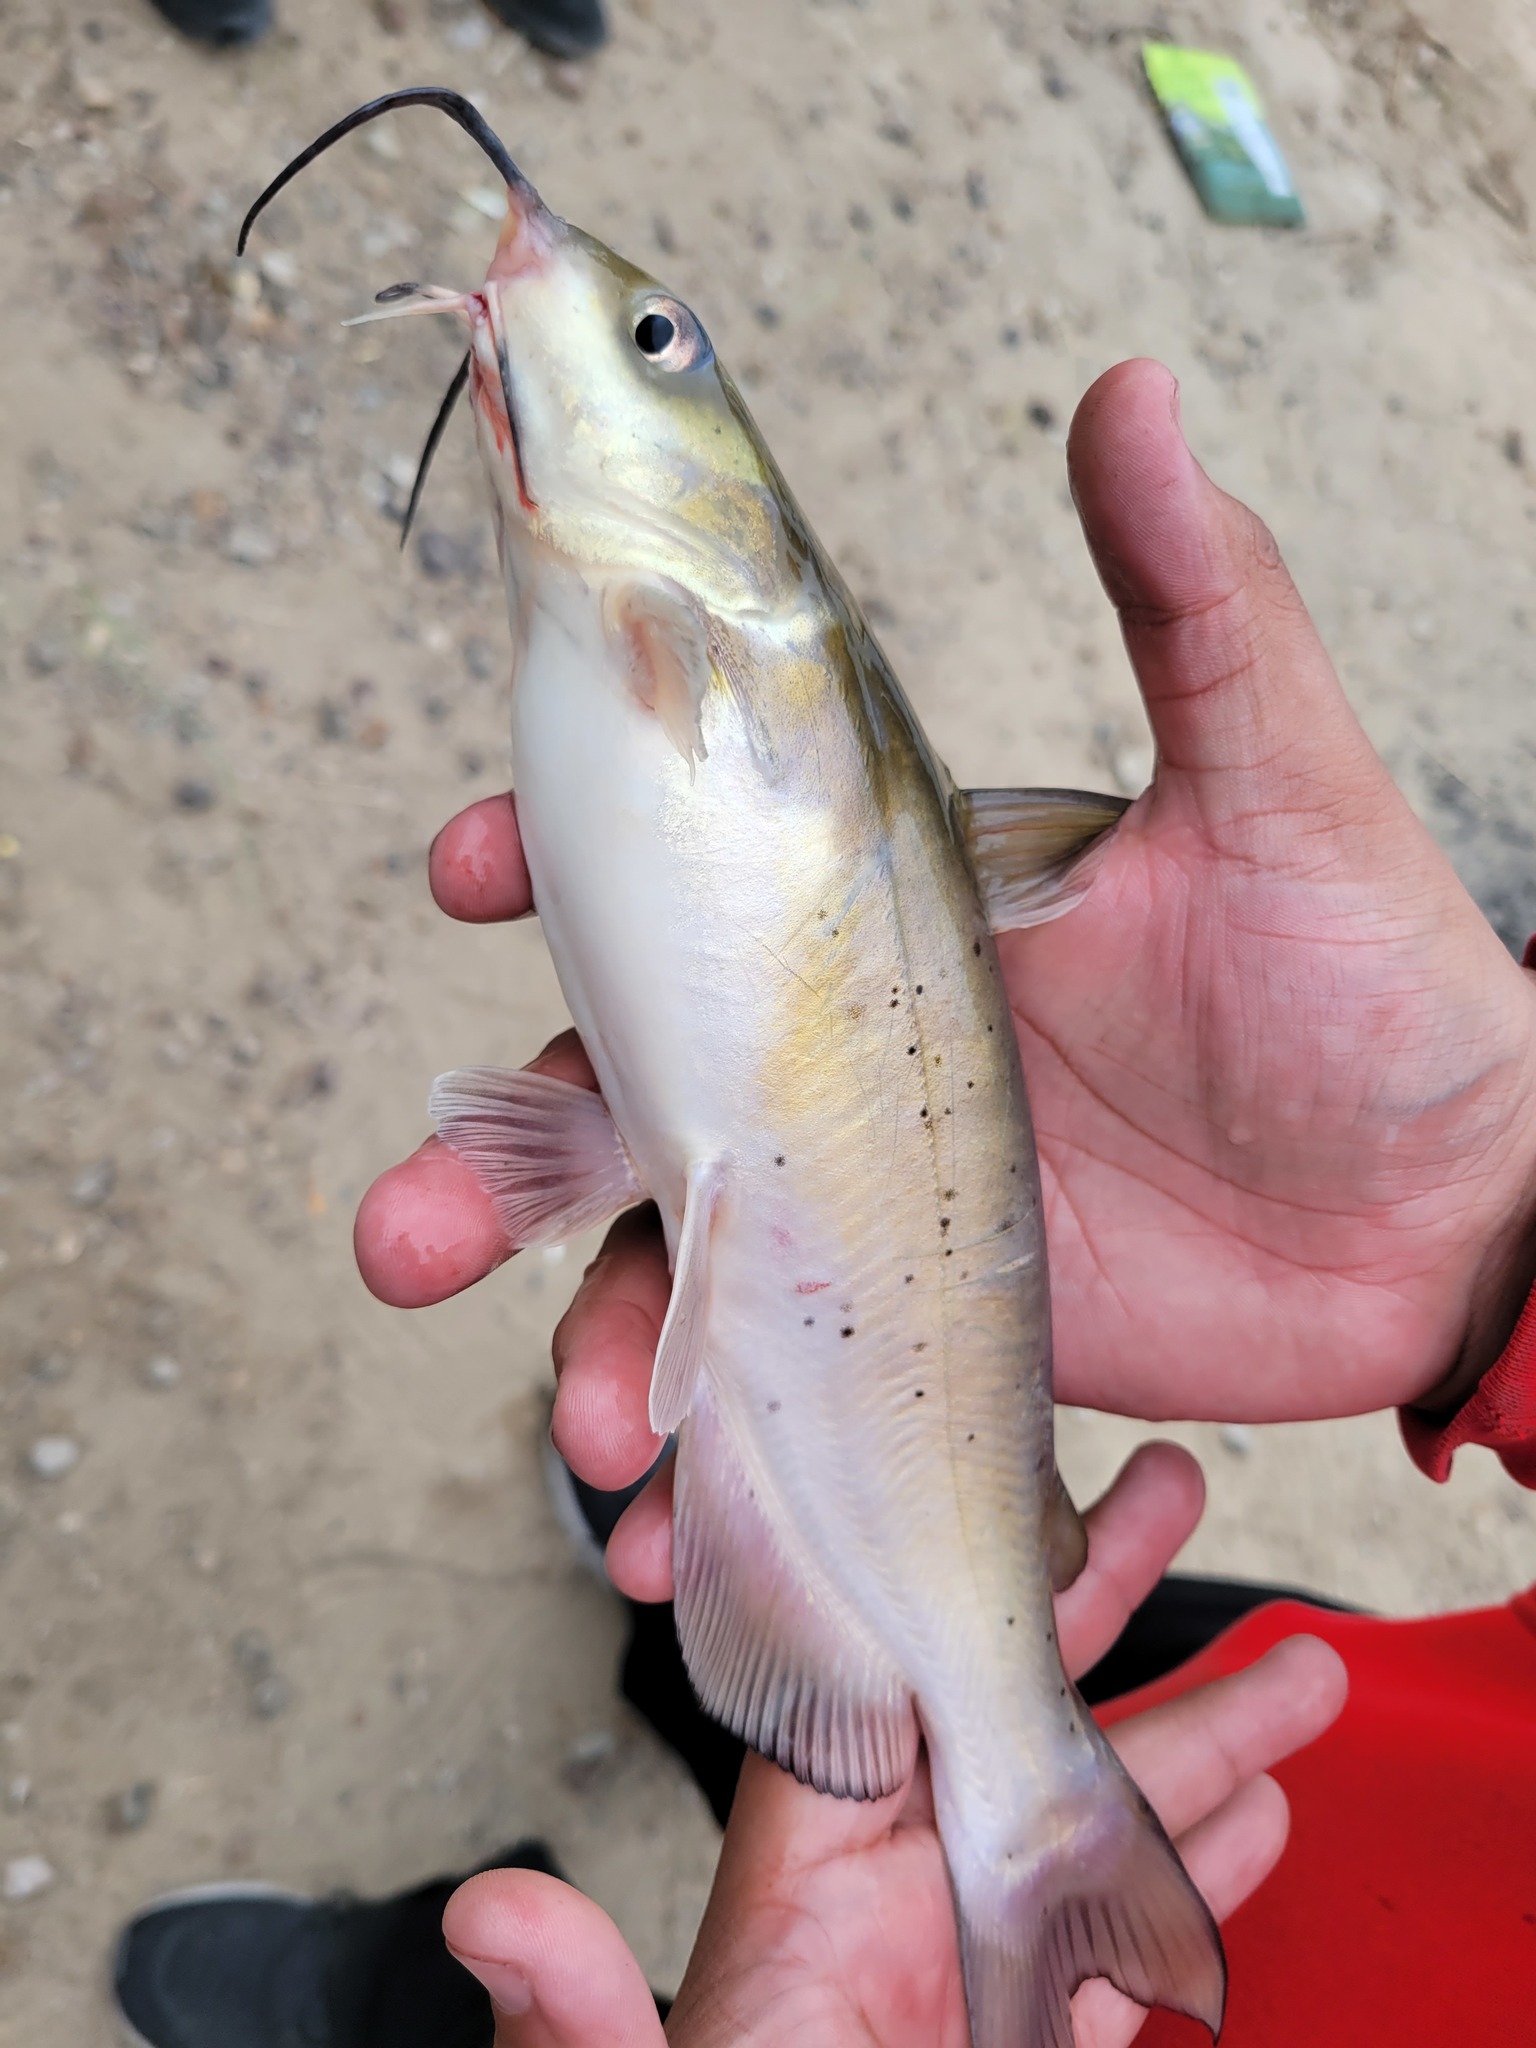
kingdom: Animalia
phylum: Chordata
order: Siluriformes
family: Ictaluridae
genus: Ictalurus
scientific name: Ictalurus punctatus
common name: Channel catfish
